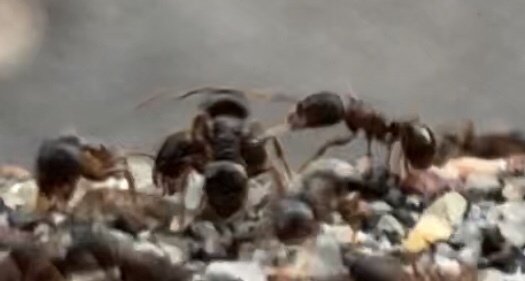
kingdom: Animalia
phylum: Arthropoda
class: Insecta
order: Hymenoptera
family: Formicidae
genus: Tetramorium
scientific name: Tetramorium immigrans
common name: Pavement ant
